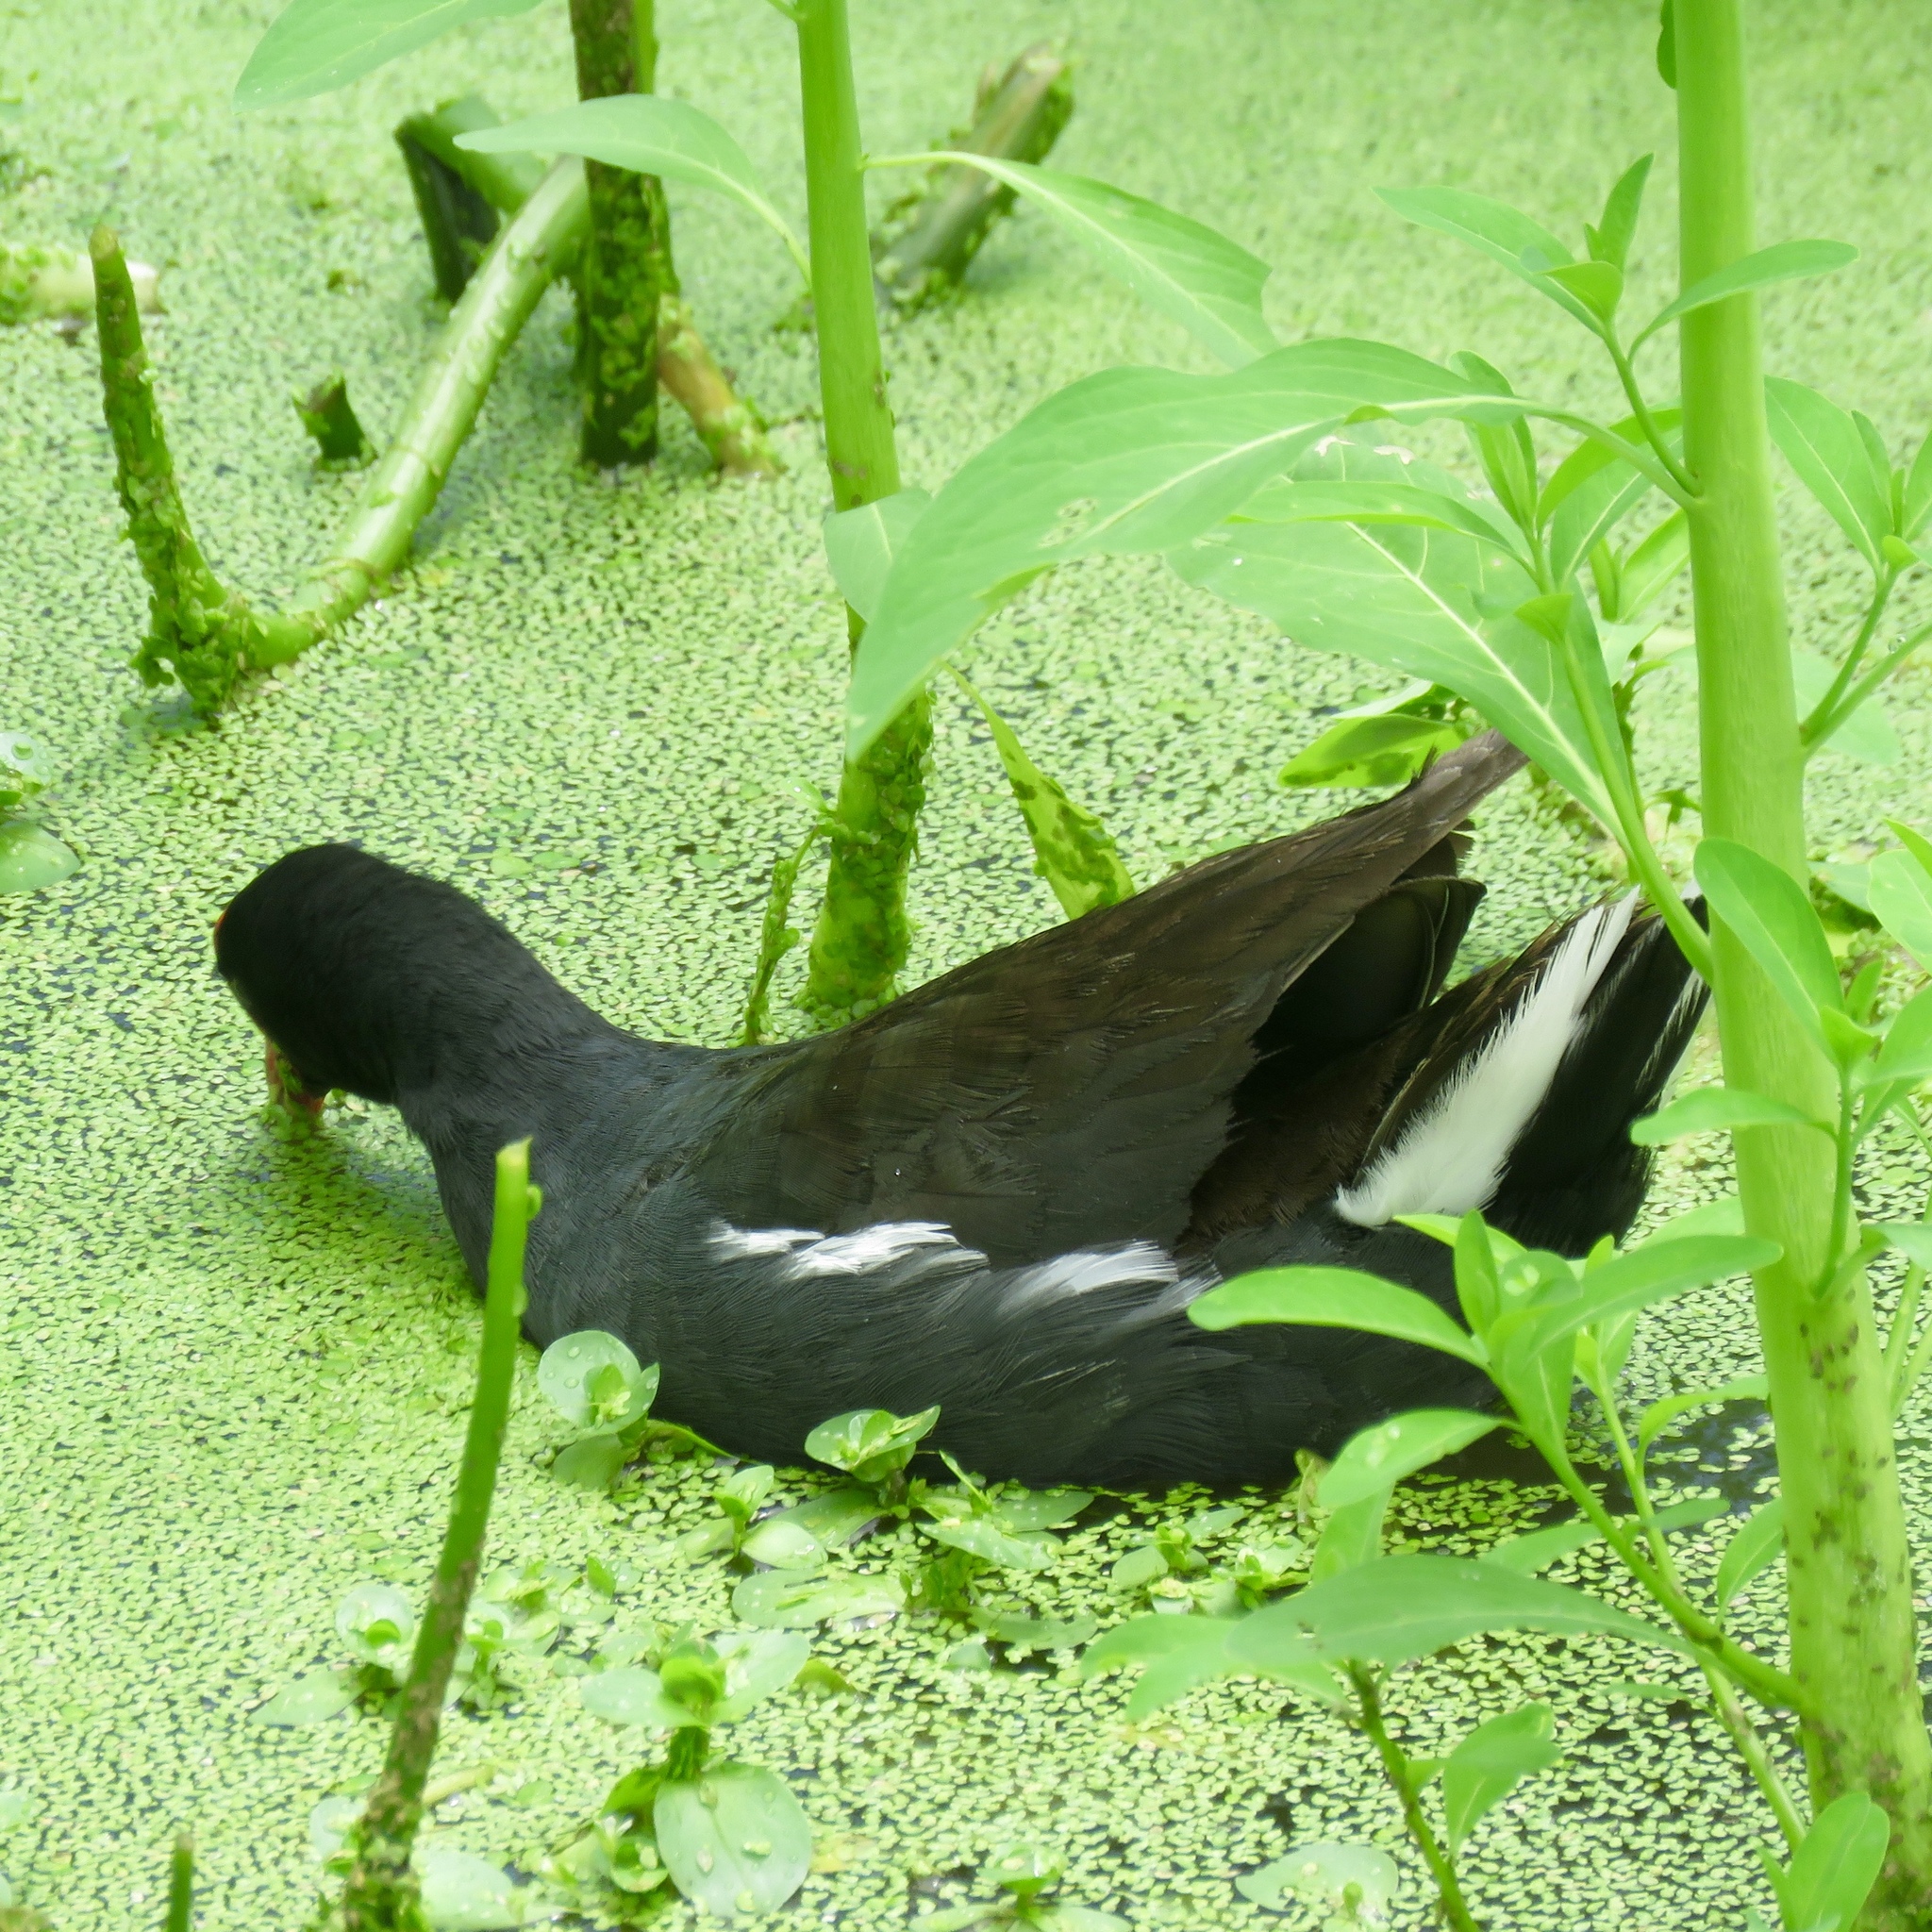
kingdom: Animalia
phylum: Chordata
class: Aves
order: Gruiformes
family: Rallidae
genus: Gallinula
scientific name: Gallinula chloropus
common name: Common moorhen
